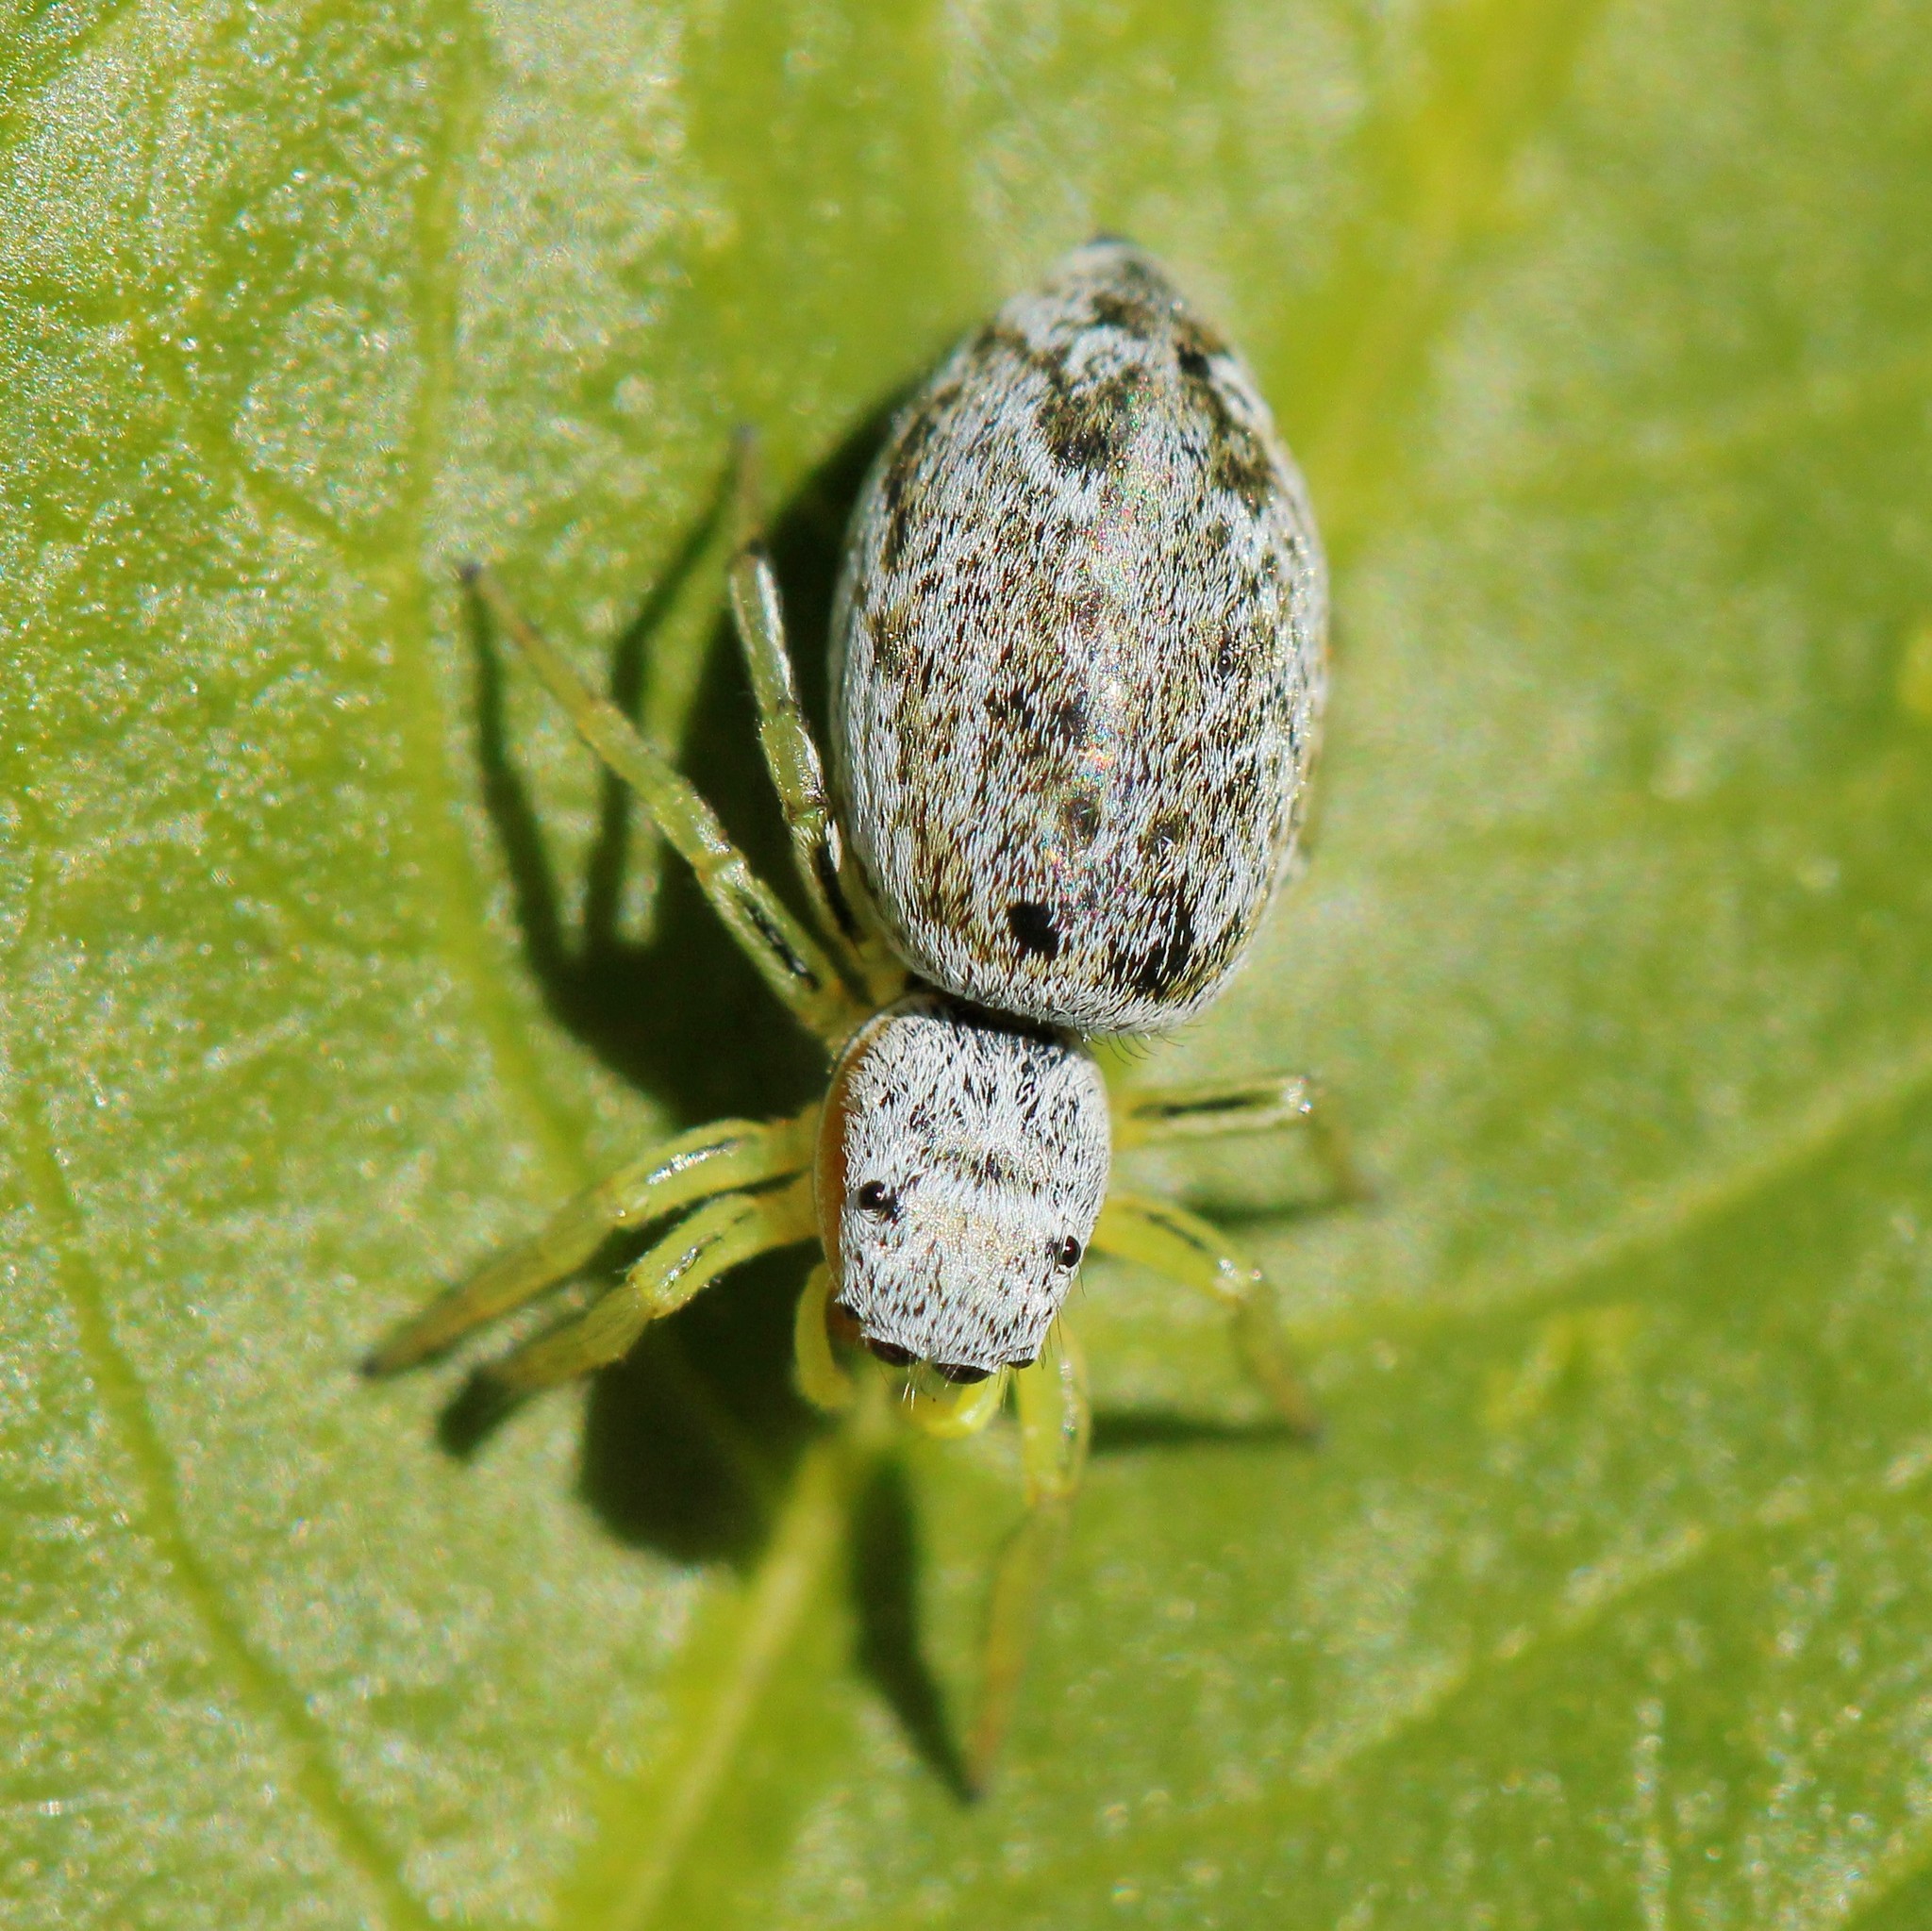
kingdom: Animalia
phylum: Arthropoda
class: Arachnida
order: Araneae
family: Salticidae
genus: Heliophanus
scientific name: Heliophanus simplex
